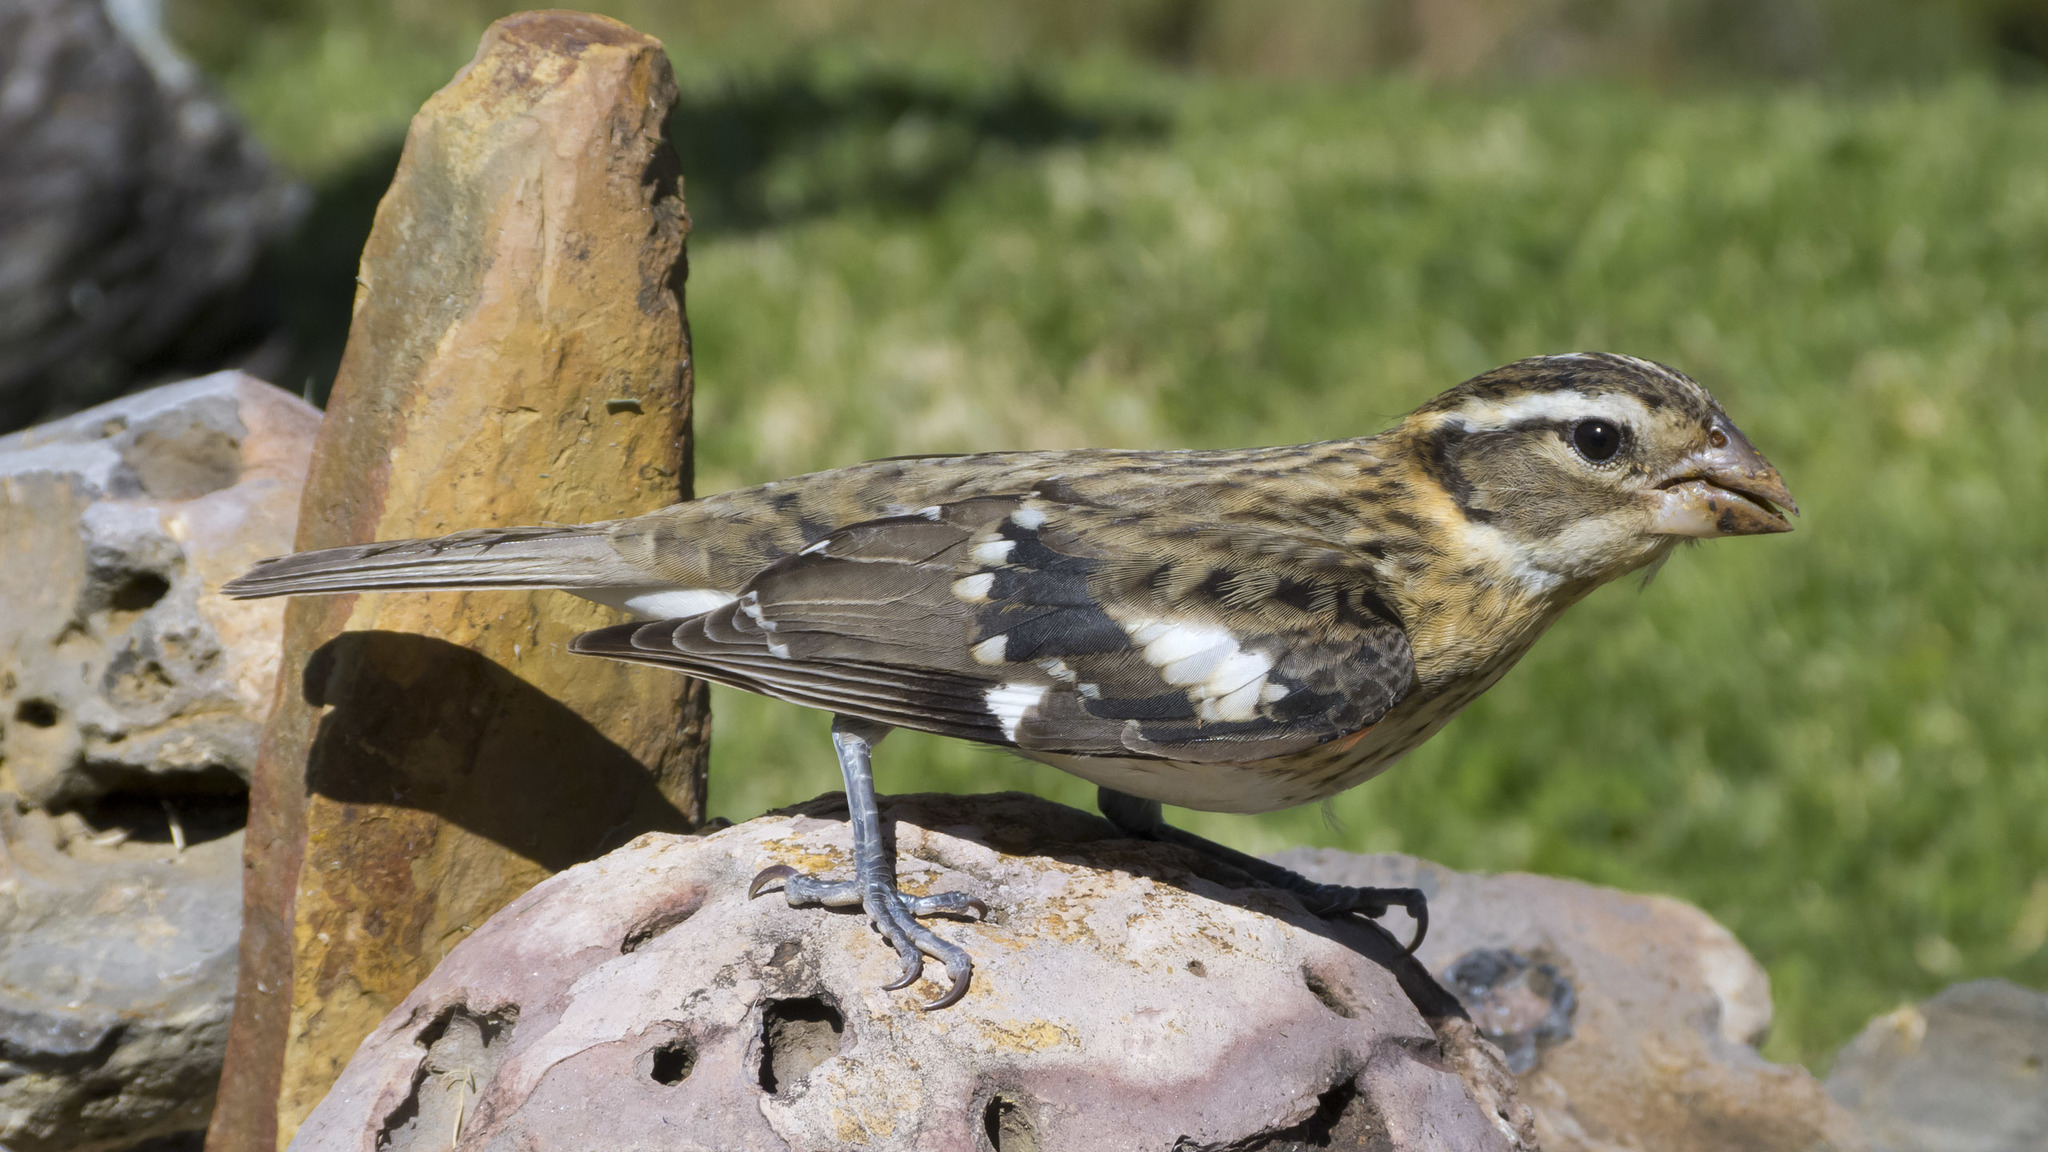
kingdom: Animalia
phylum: Chordata
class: Aves
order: Passeriformes
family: Cardinalidae
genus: Pheucticus
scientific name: Pheucticus ludovicianus
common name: Rose-breasted grosbeak
